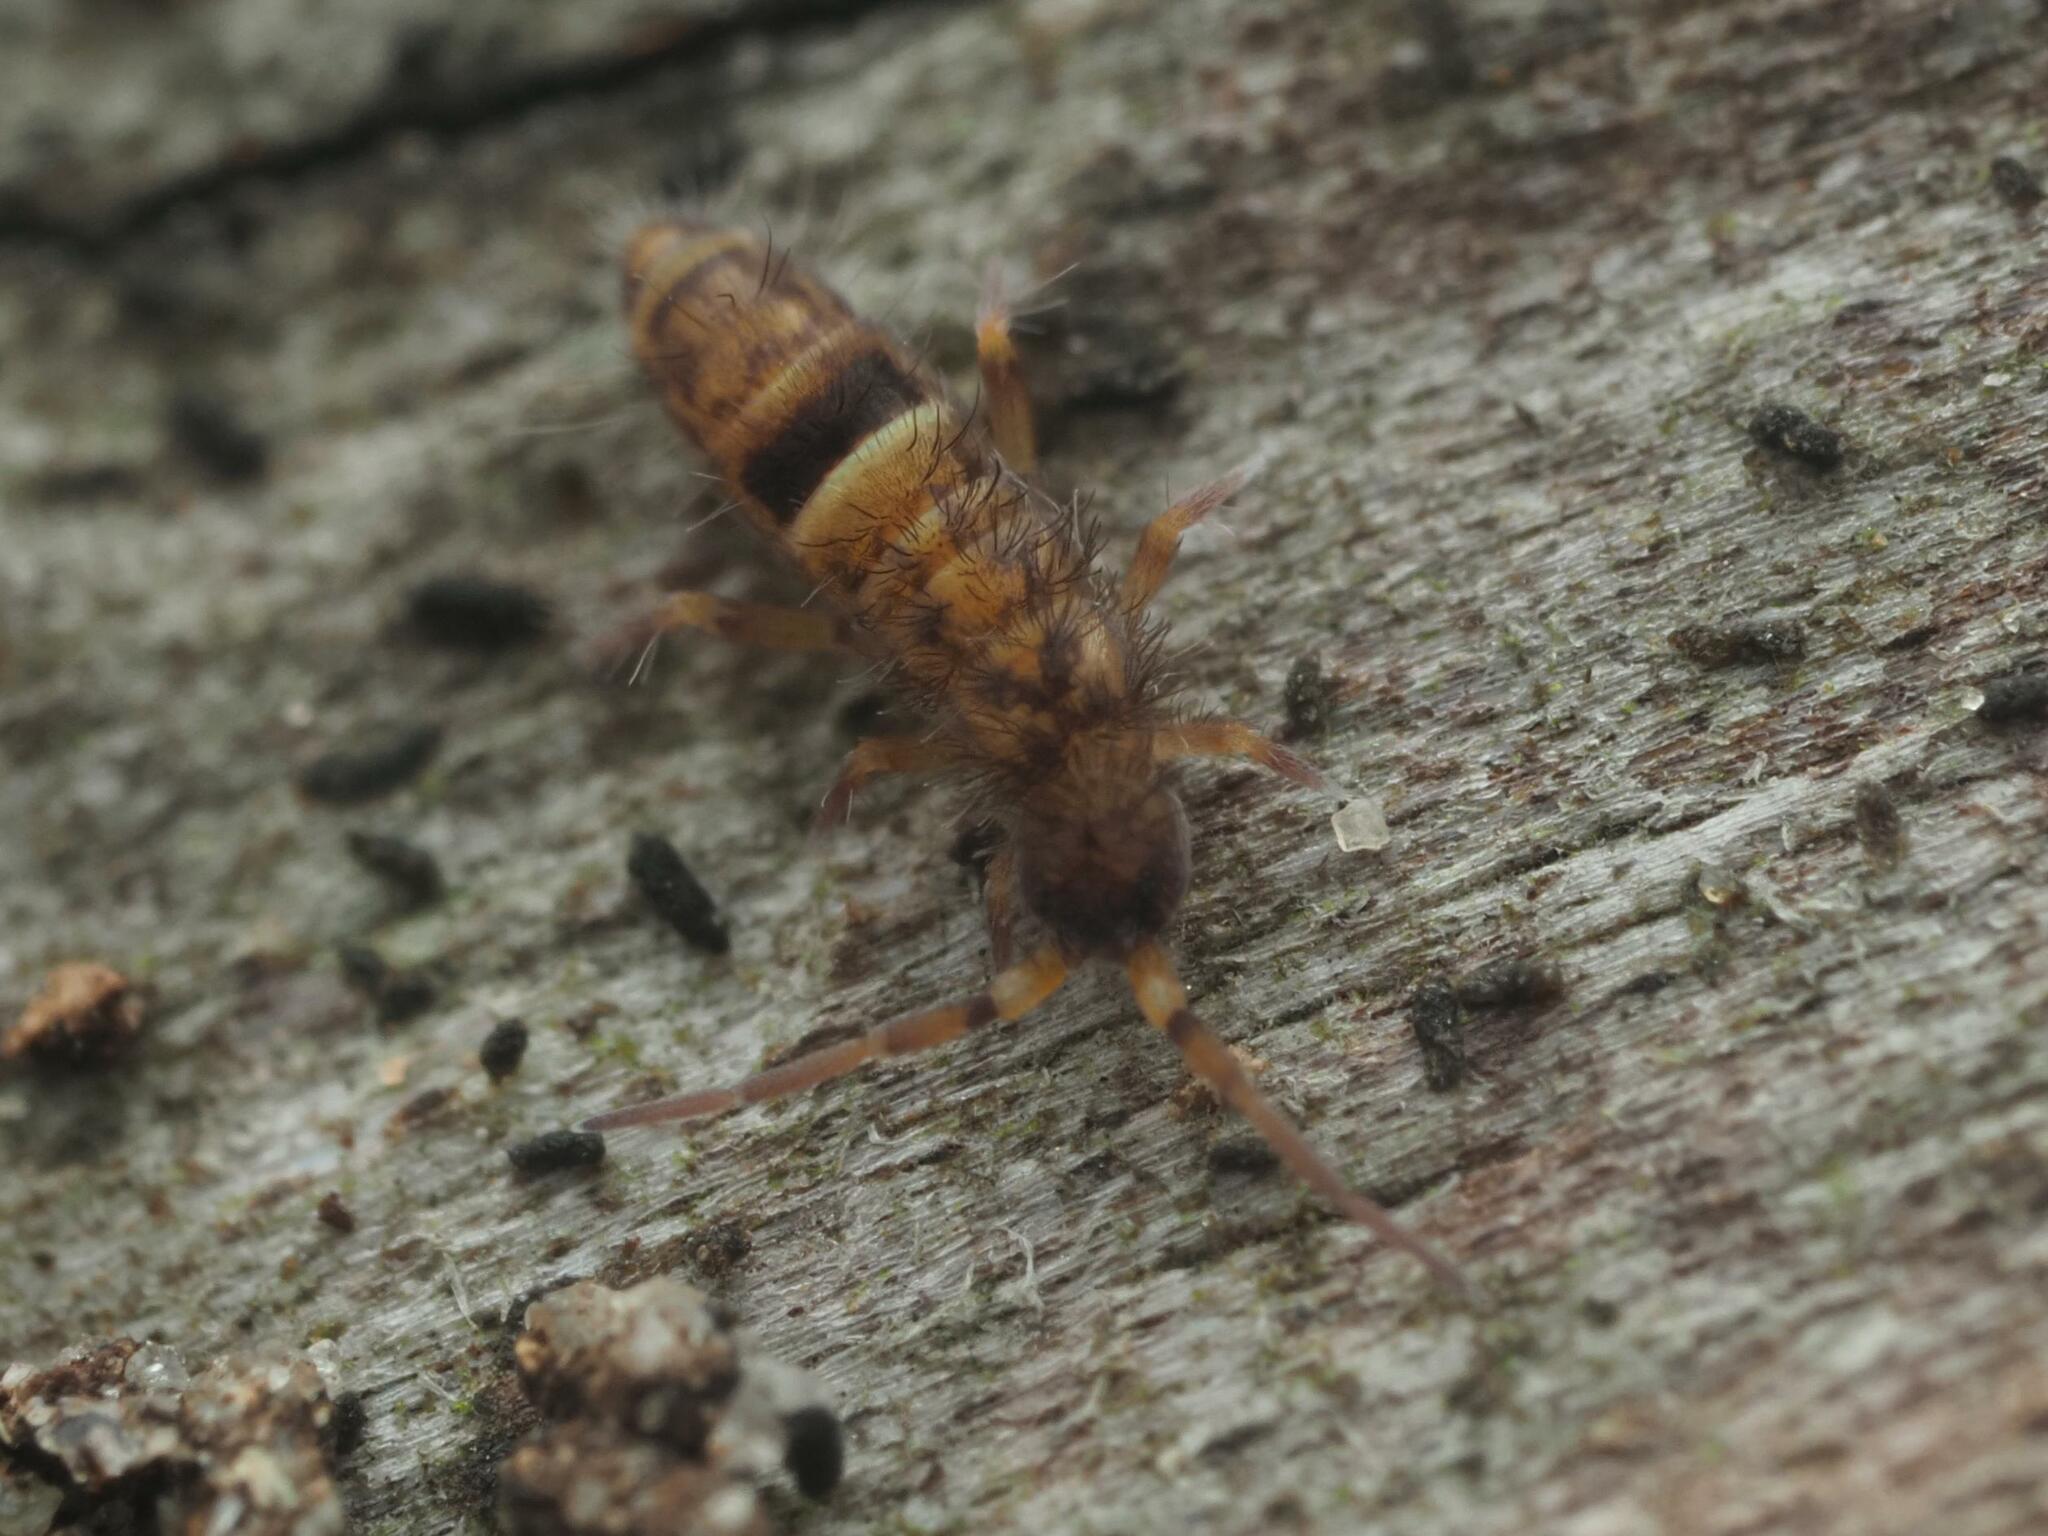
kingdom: Animalia
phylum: Arthropoda
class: Collembola
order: Entomobryomorpha
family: Orchesellidae
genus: Orchesella
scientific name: Orchesella cincta
